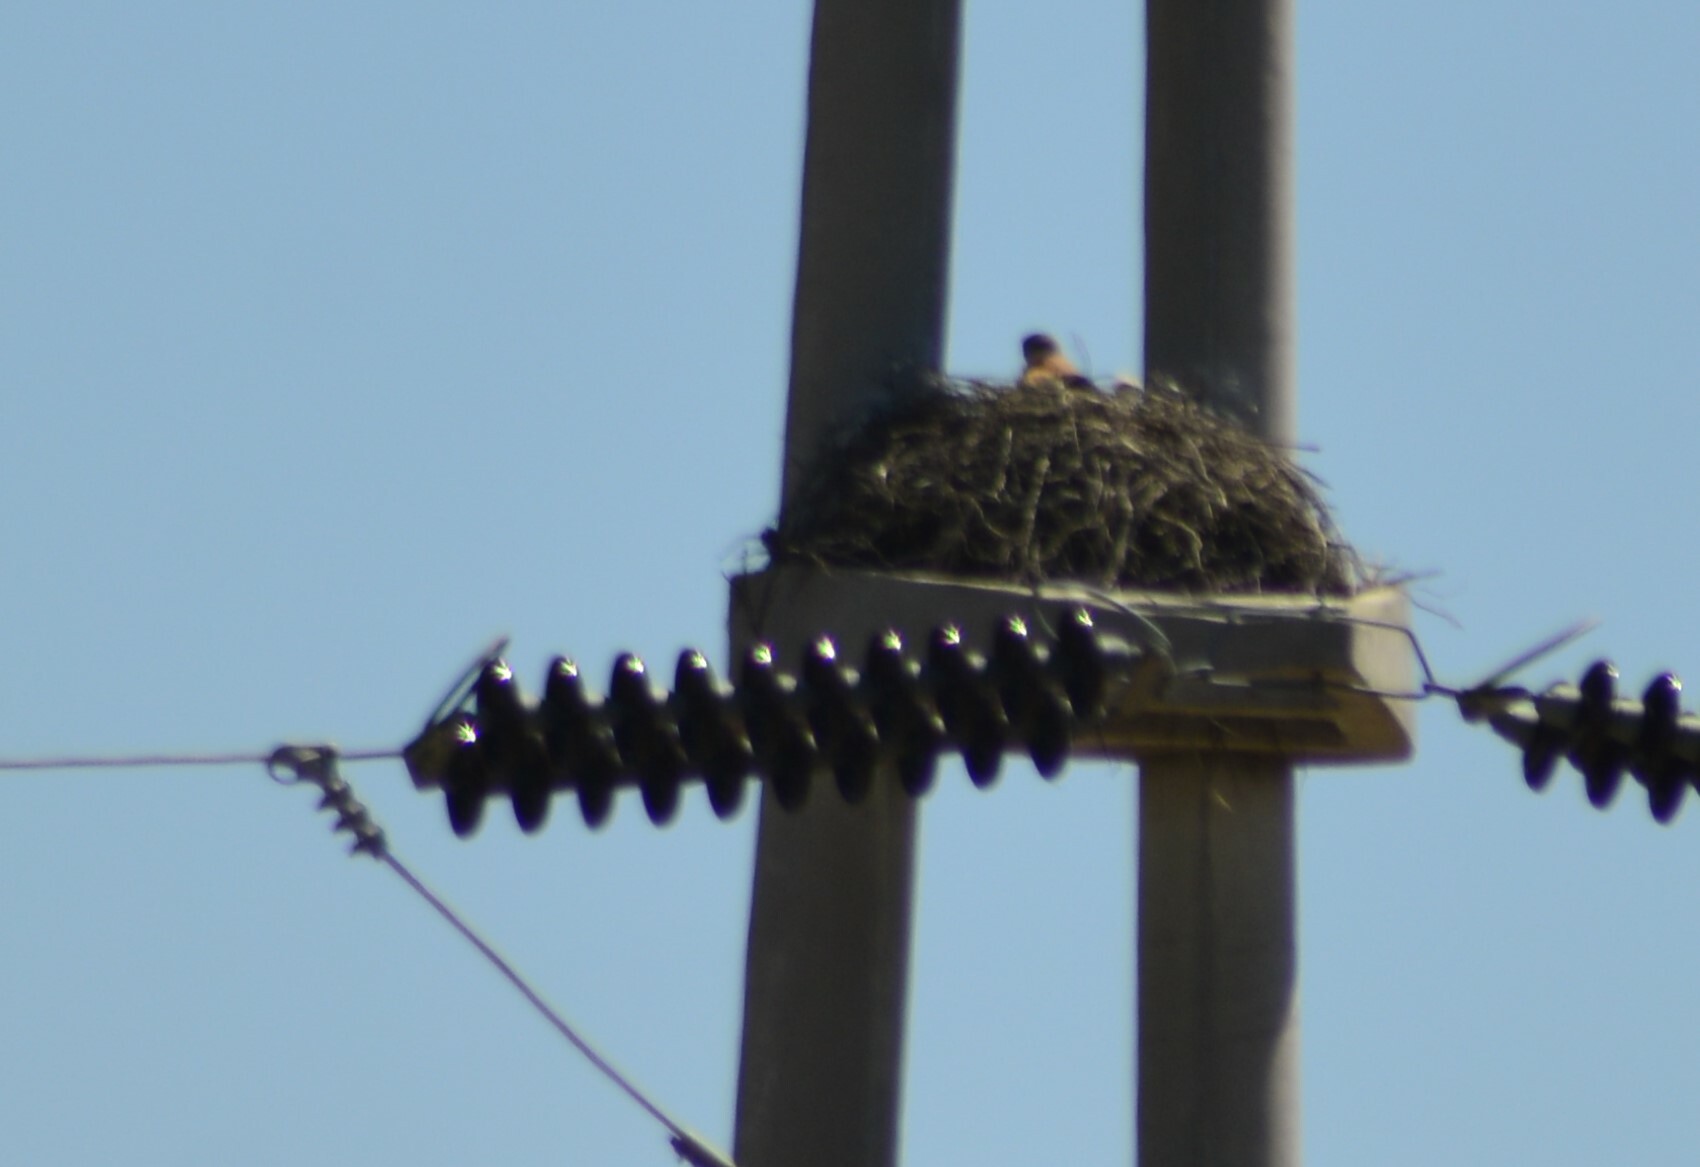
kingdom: Animalia
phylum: Chordata
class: Aves
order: Accipitriformes
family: Accipitridae
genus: Buteo
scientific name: Buteo polyosoma
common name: Variable hawk
